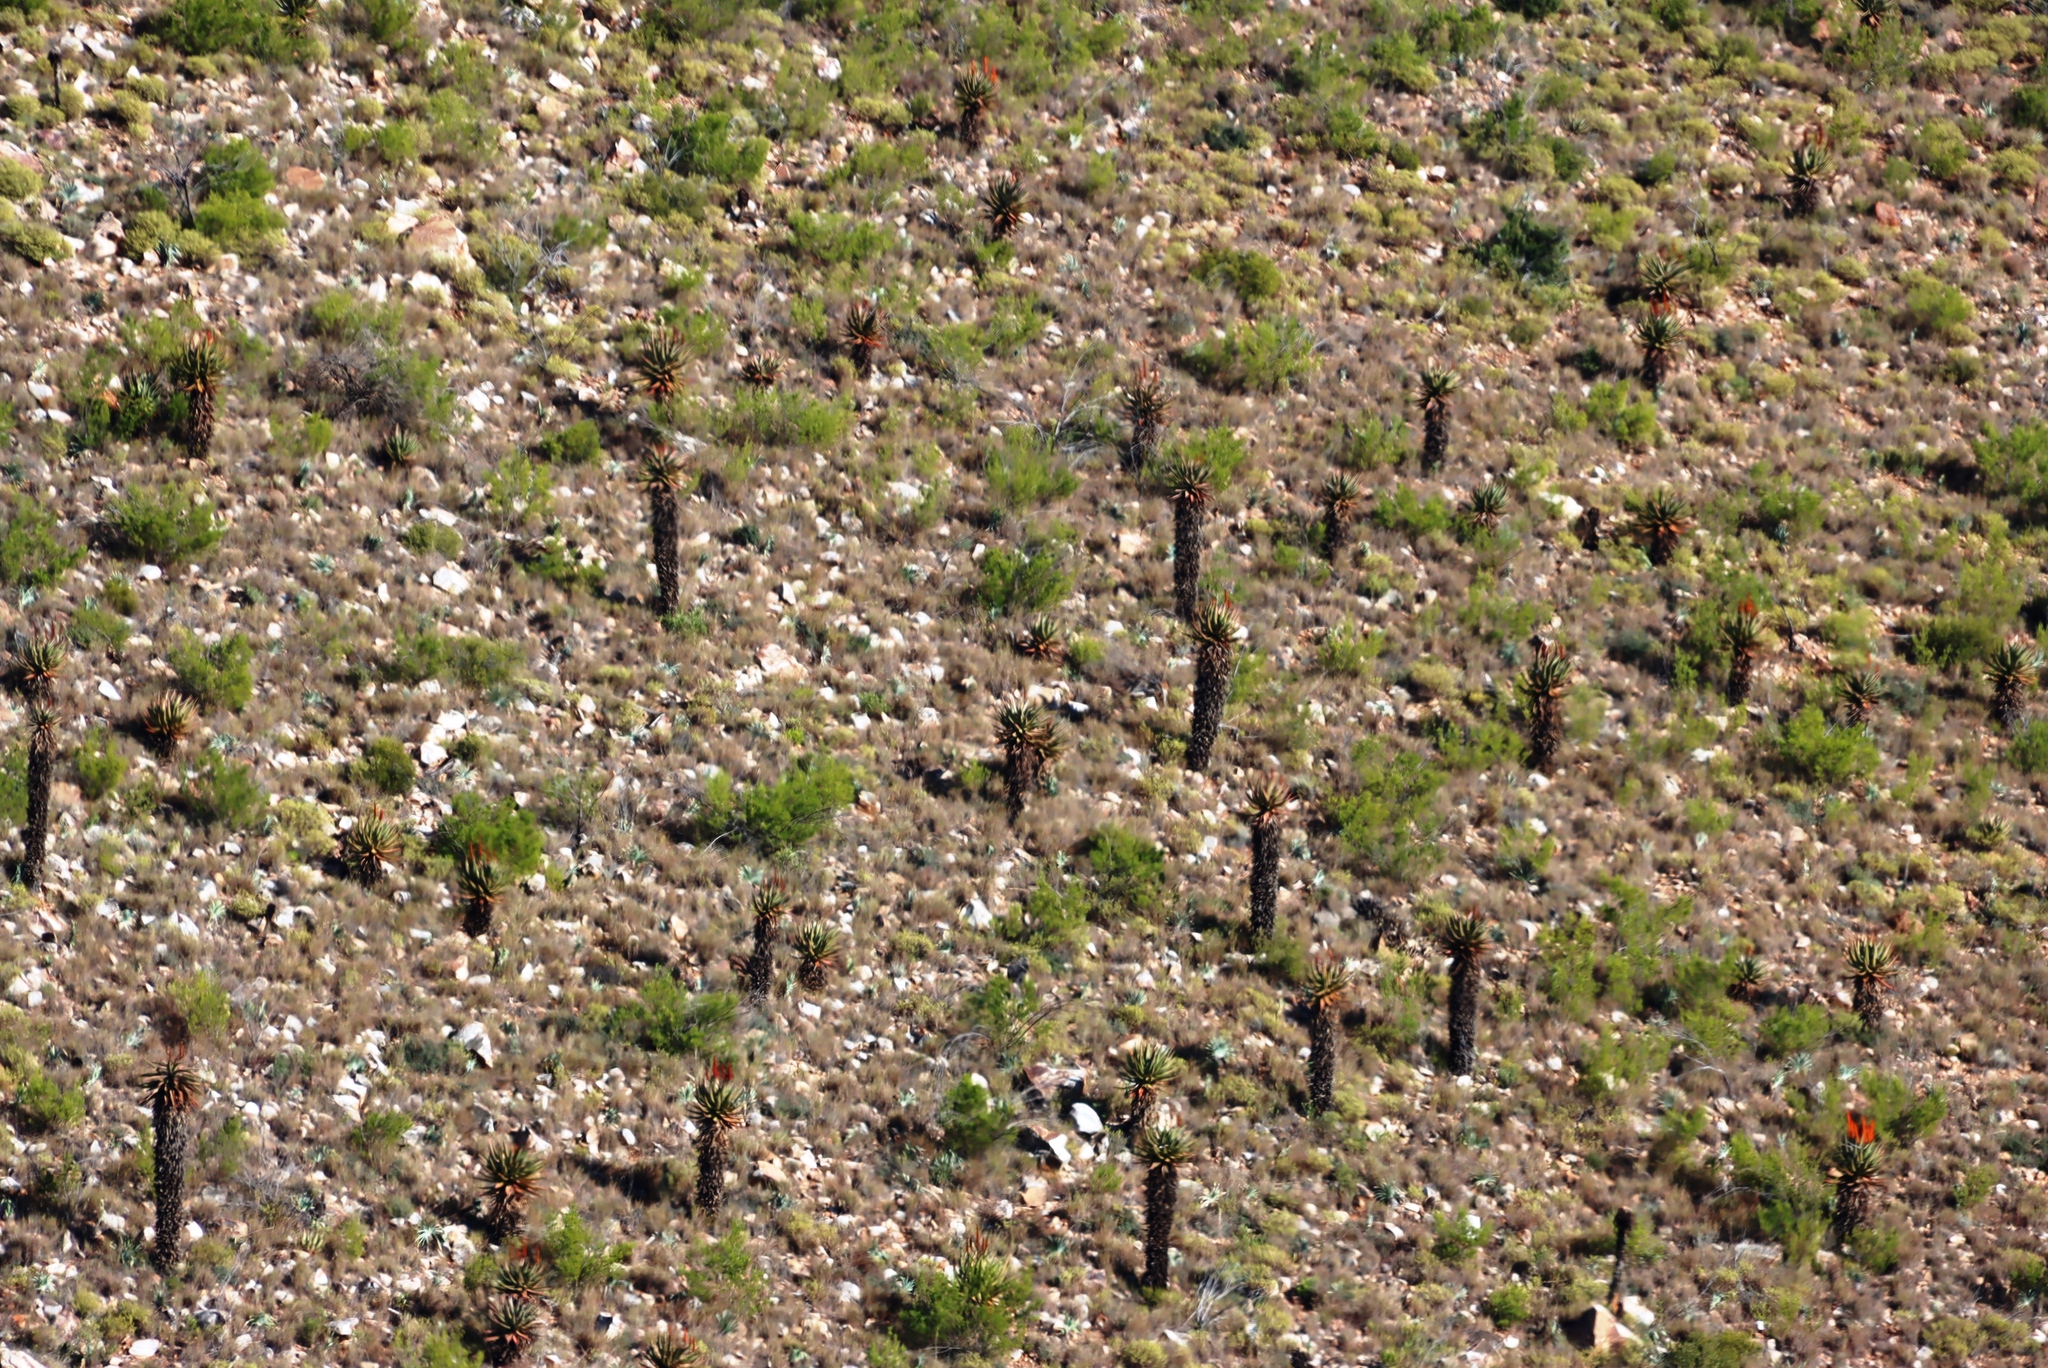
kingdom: Plantae
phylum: Tracheophyta
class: Liliopsida
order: Asparagales
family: Asphodelaceae
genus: Aloe
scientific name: Aloe ferox
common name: Bitter aloe
